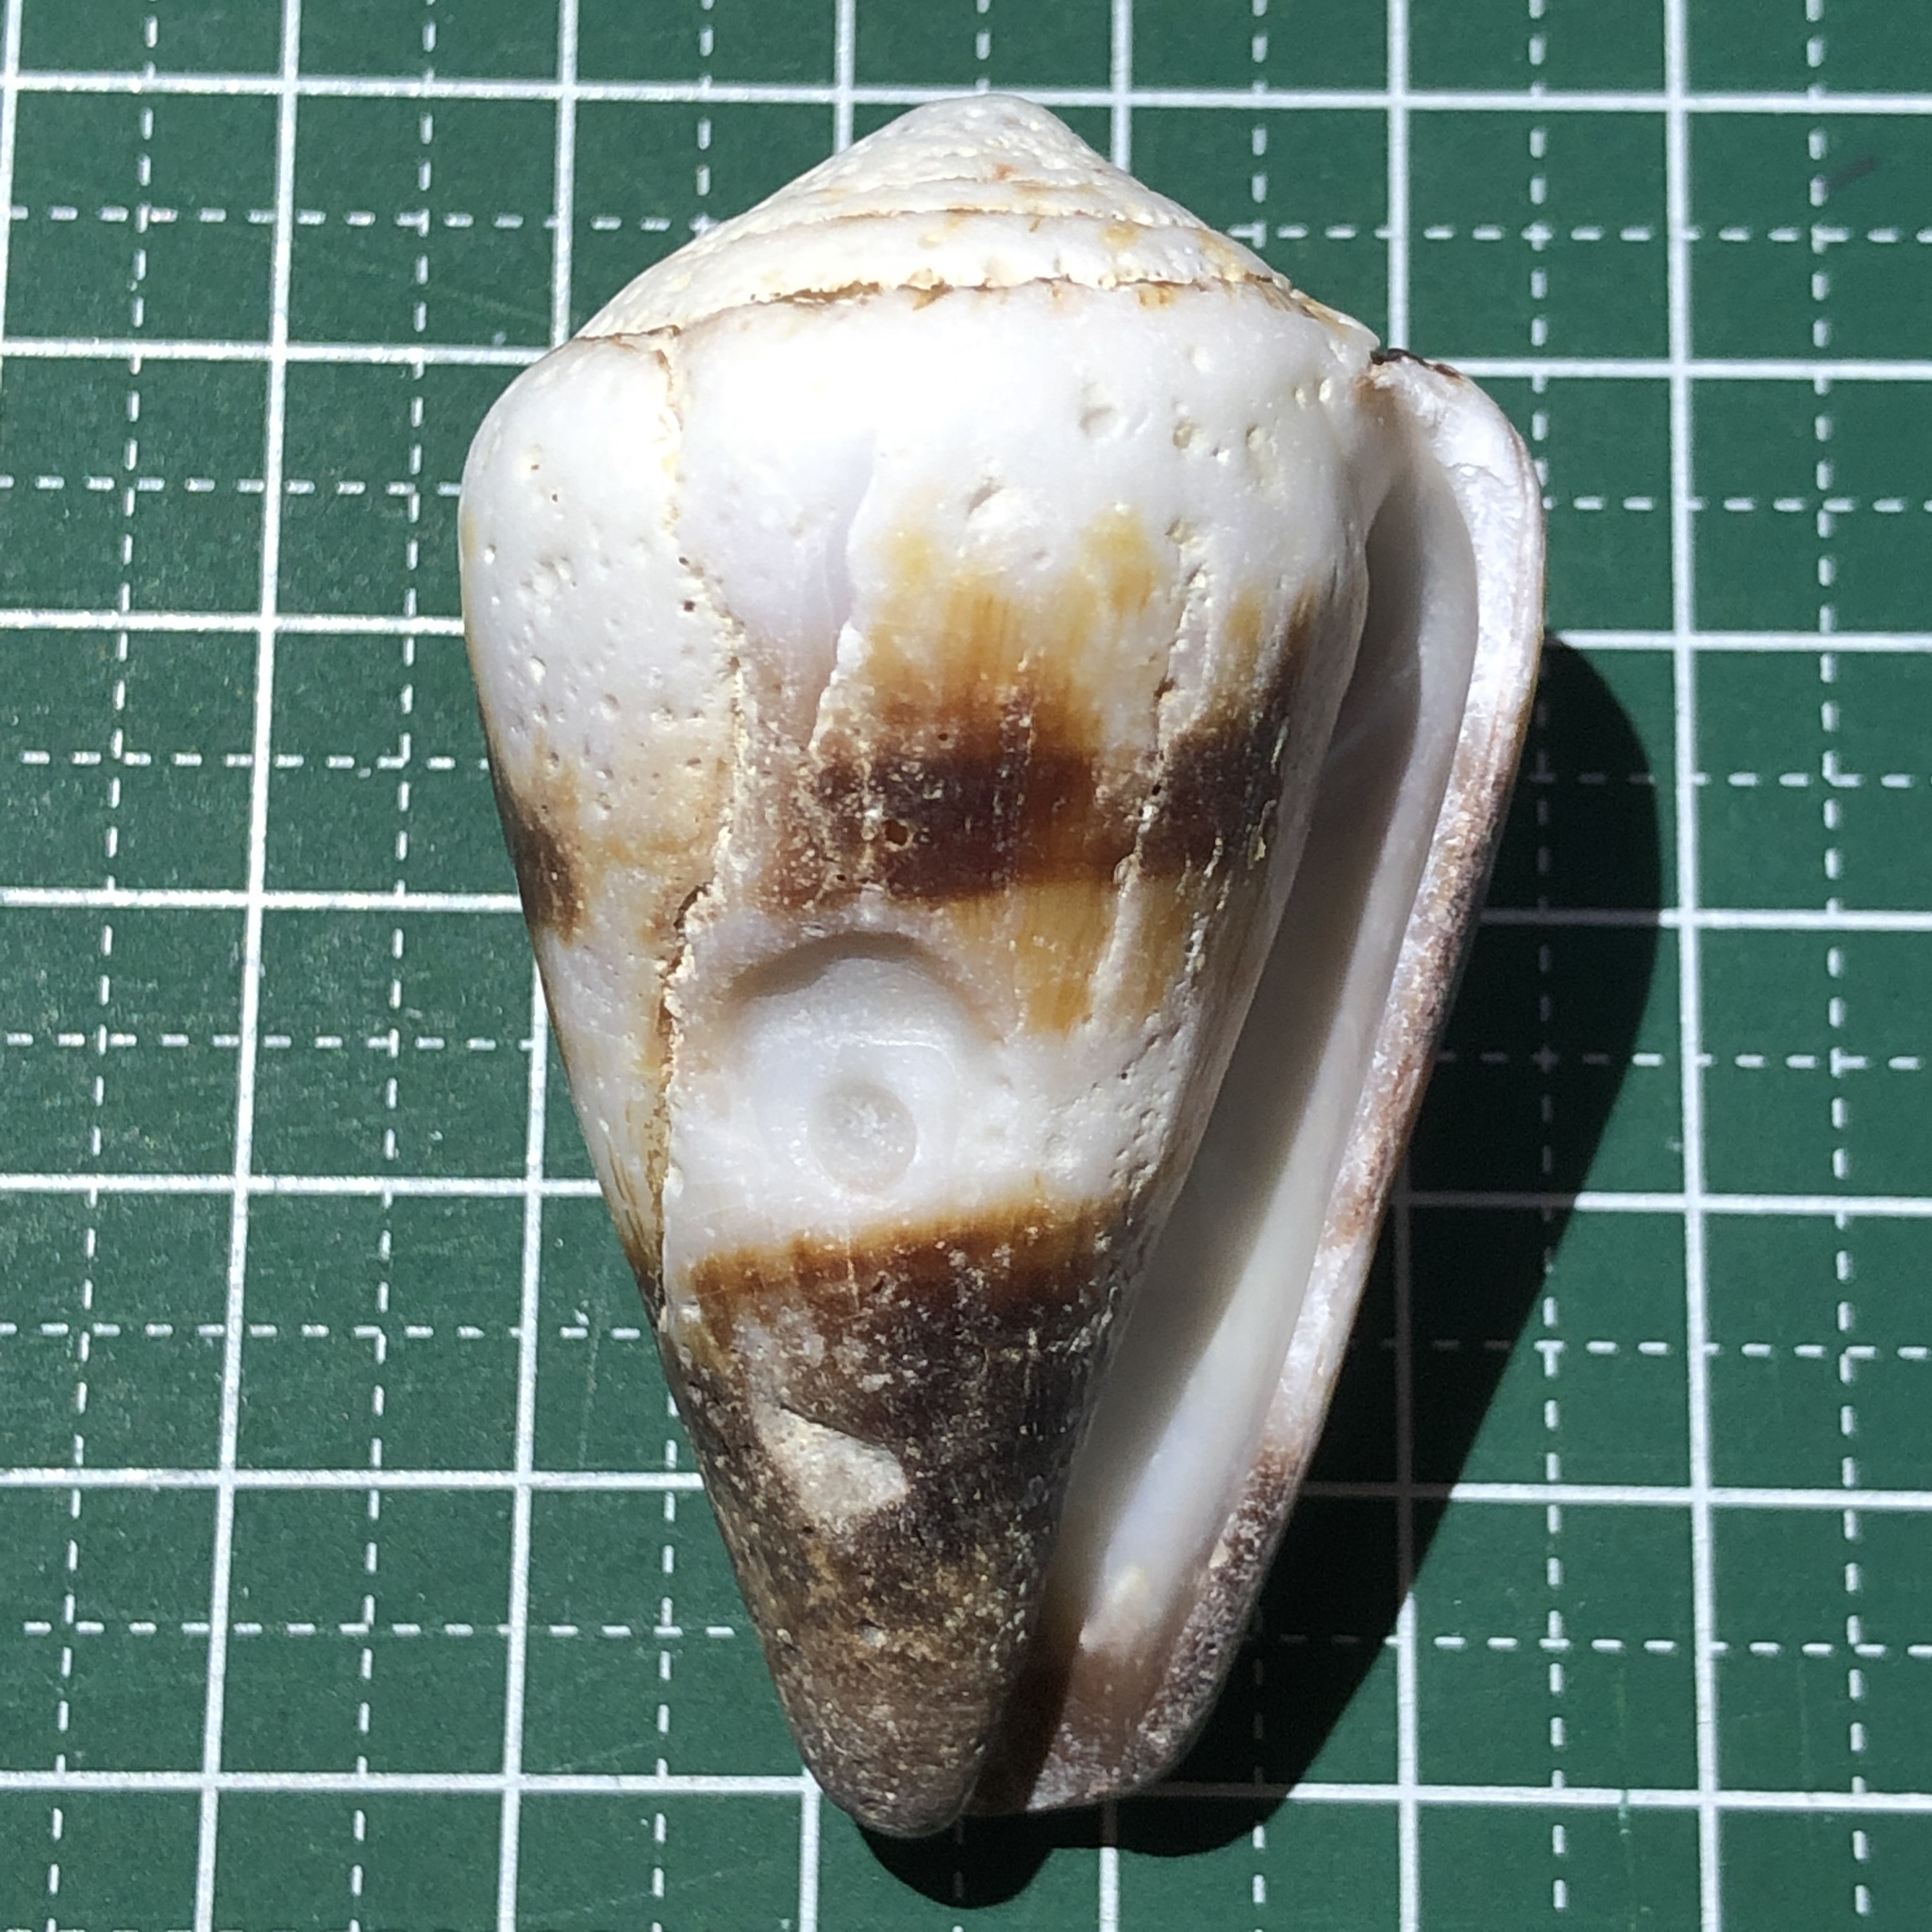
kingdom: Animalia
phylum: Mollusca
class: Gastropoda
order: Neogastropoda
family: Conidae
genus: Conus
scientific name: Conus miles
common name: Soldier cone
